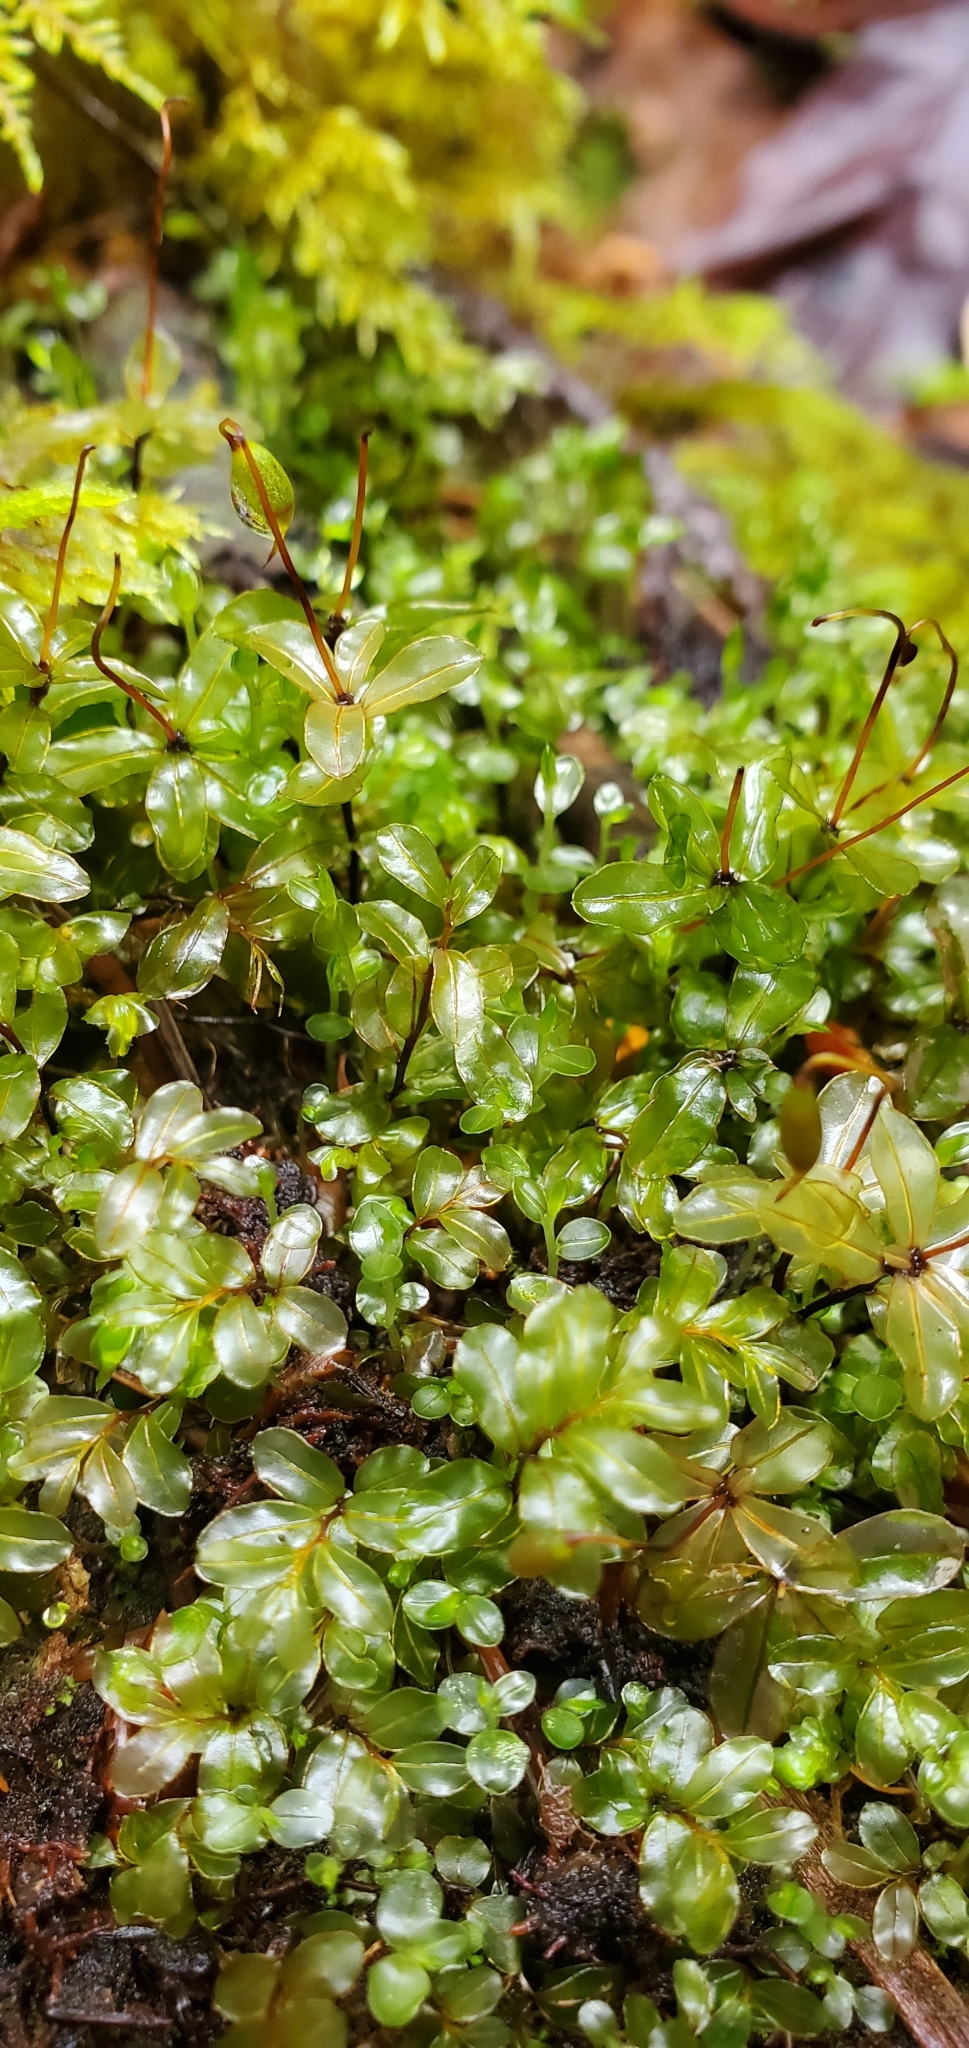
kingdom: Plantae
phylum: Bryophyta
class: Bryopsida
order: Bryales
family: Mniaceae
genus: Rhizomnium
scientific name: Rhizomnium glabrescens
